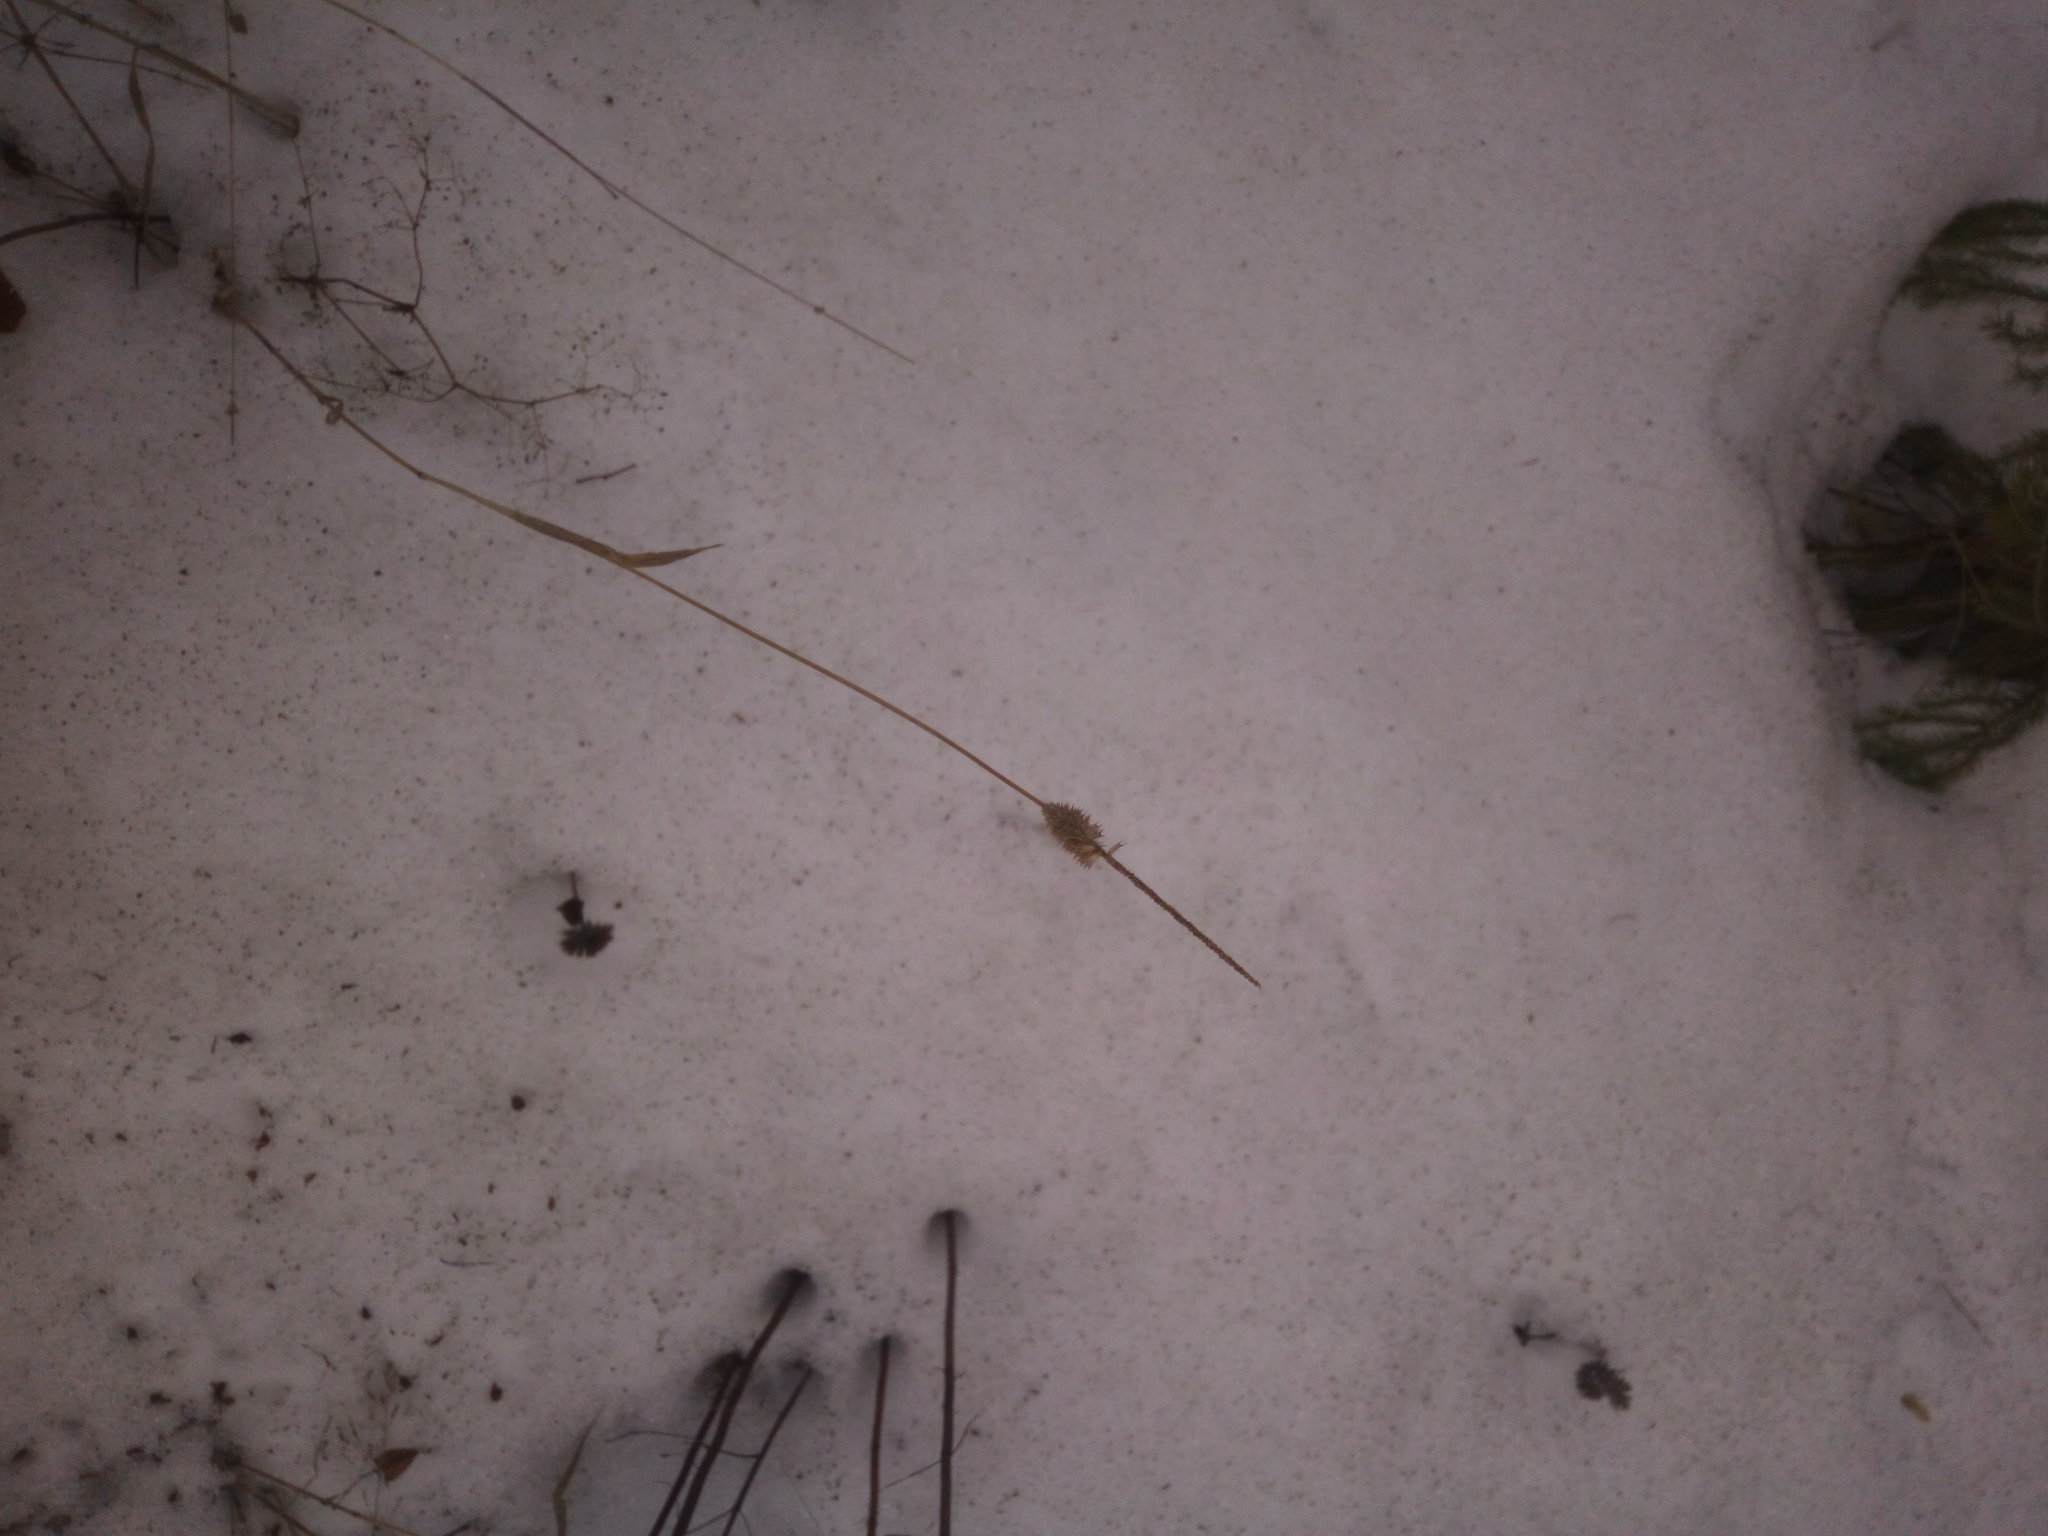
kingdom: Plantae
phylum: Tracheophyta
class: Liliopsida
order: Poales
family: Poaceae
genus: Phleum
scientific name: Phleum pratense
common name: Timothy grass
